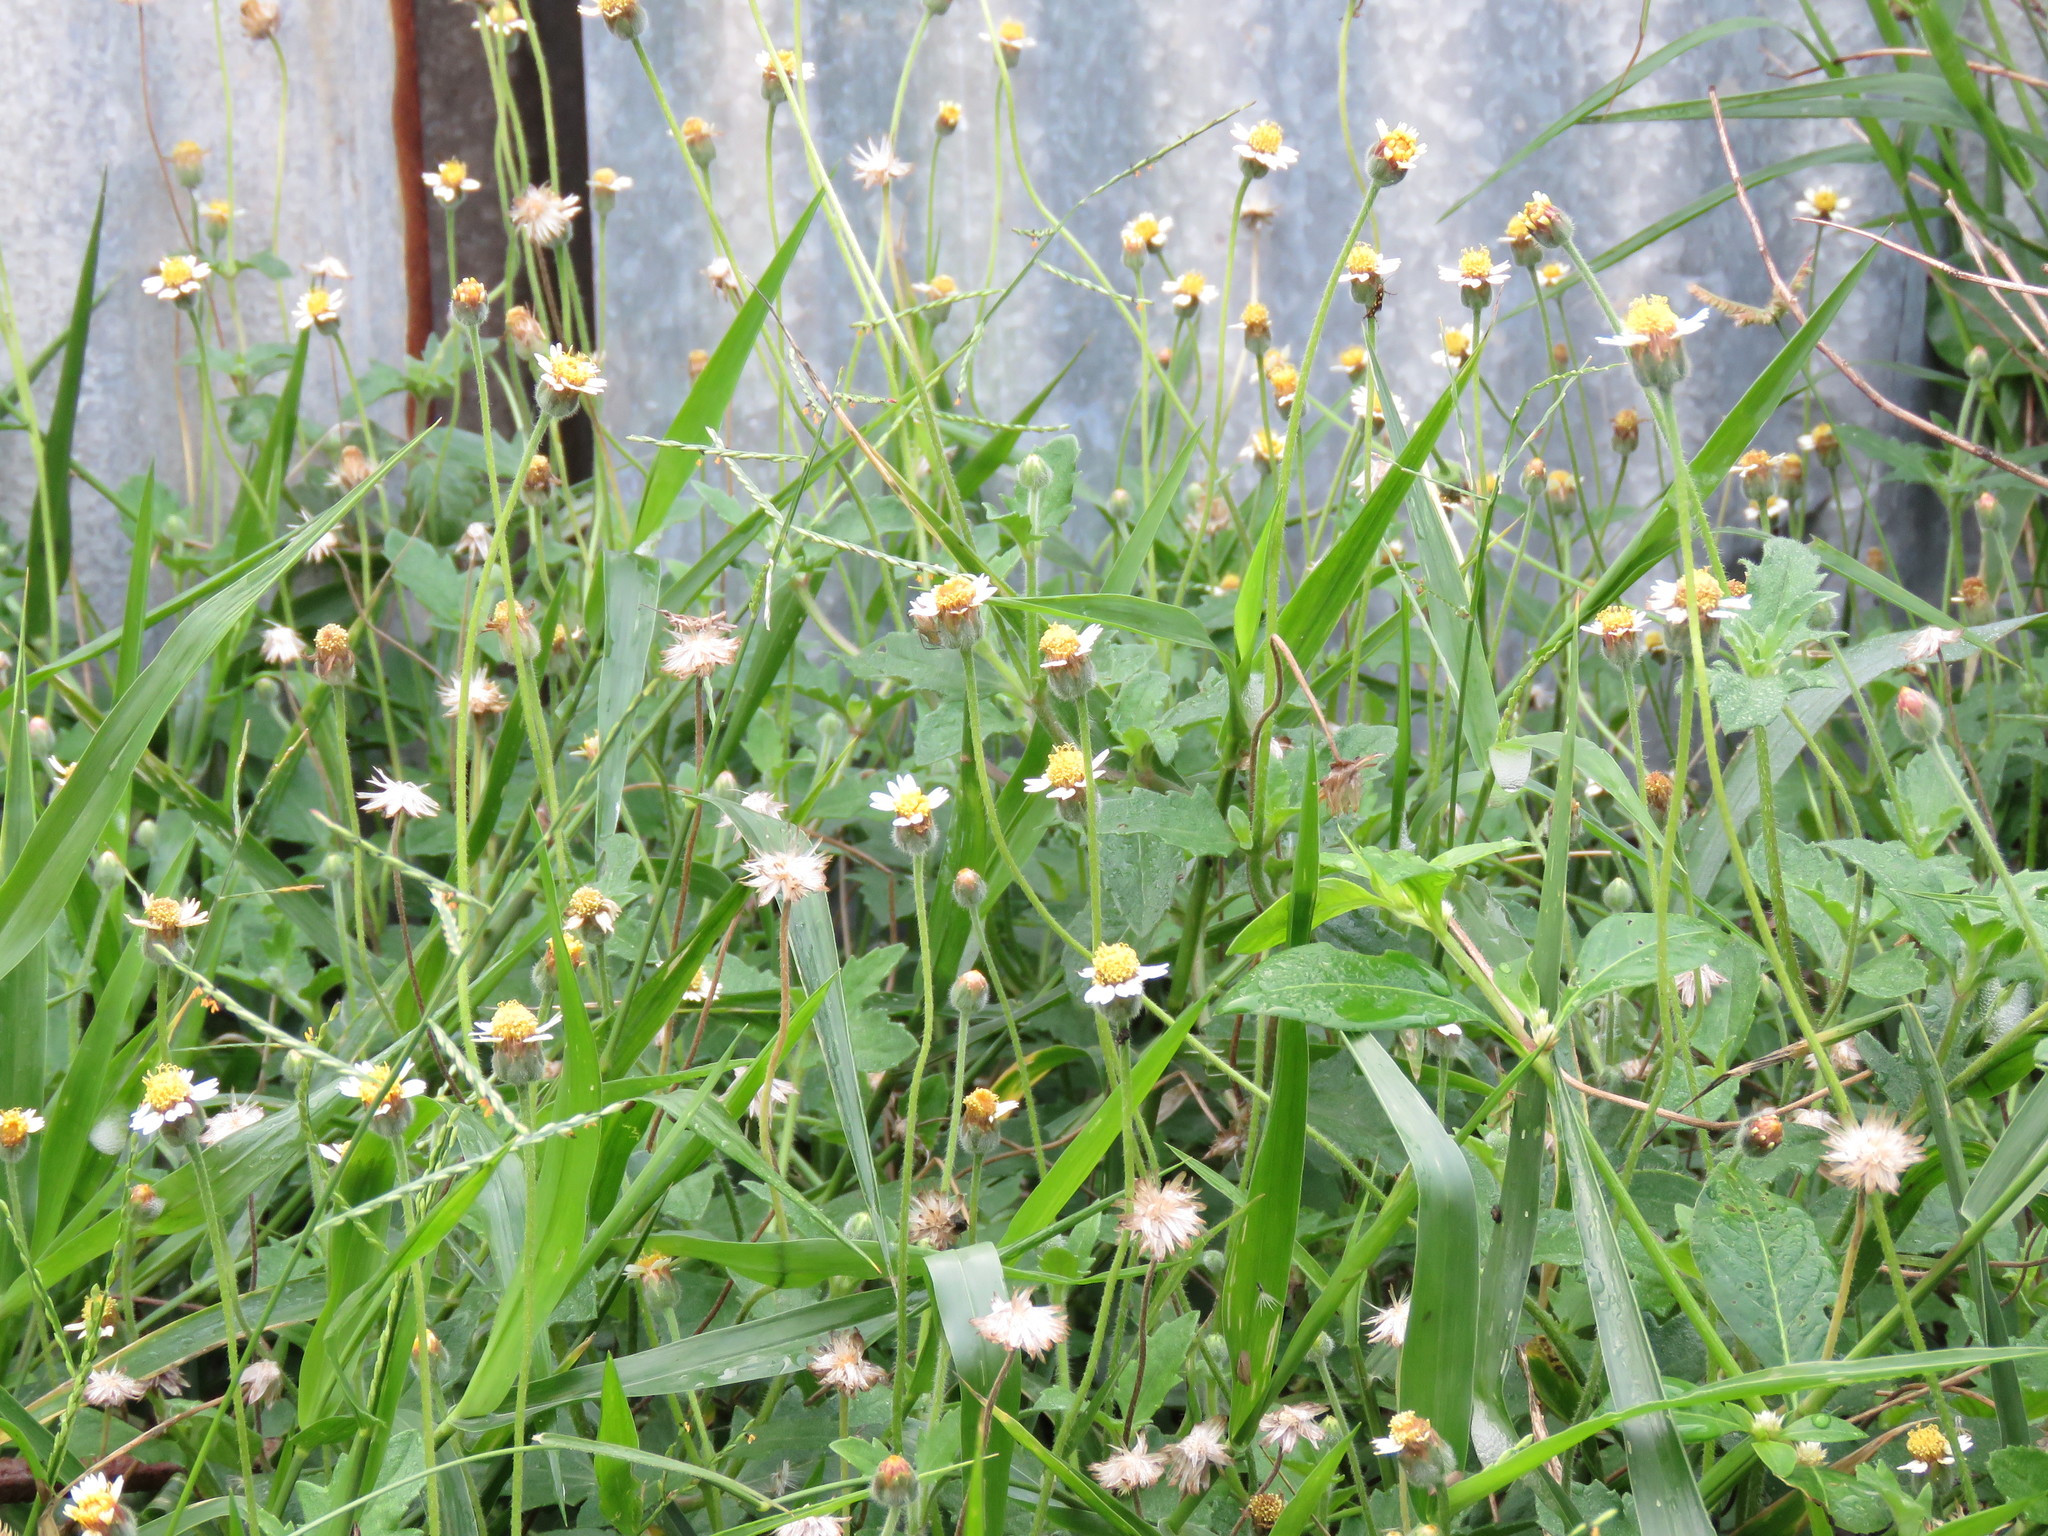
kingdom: Plantae
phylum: Tracheophyta
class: Magnoliopsida
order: Asterales
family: Asteraceae
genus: Tridax
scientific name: Tridax procumbens
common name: Coatbuttons
